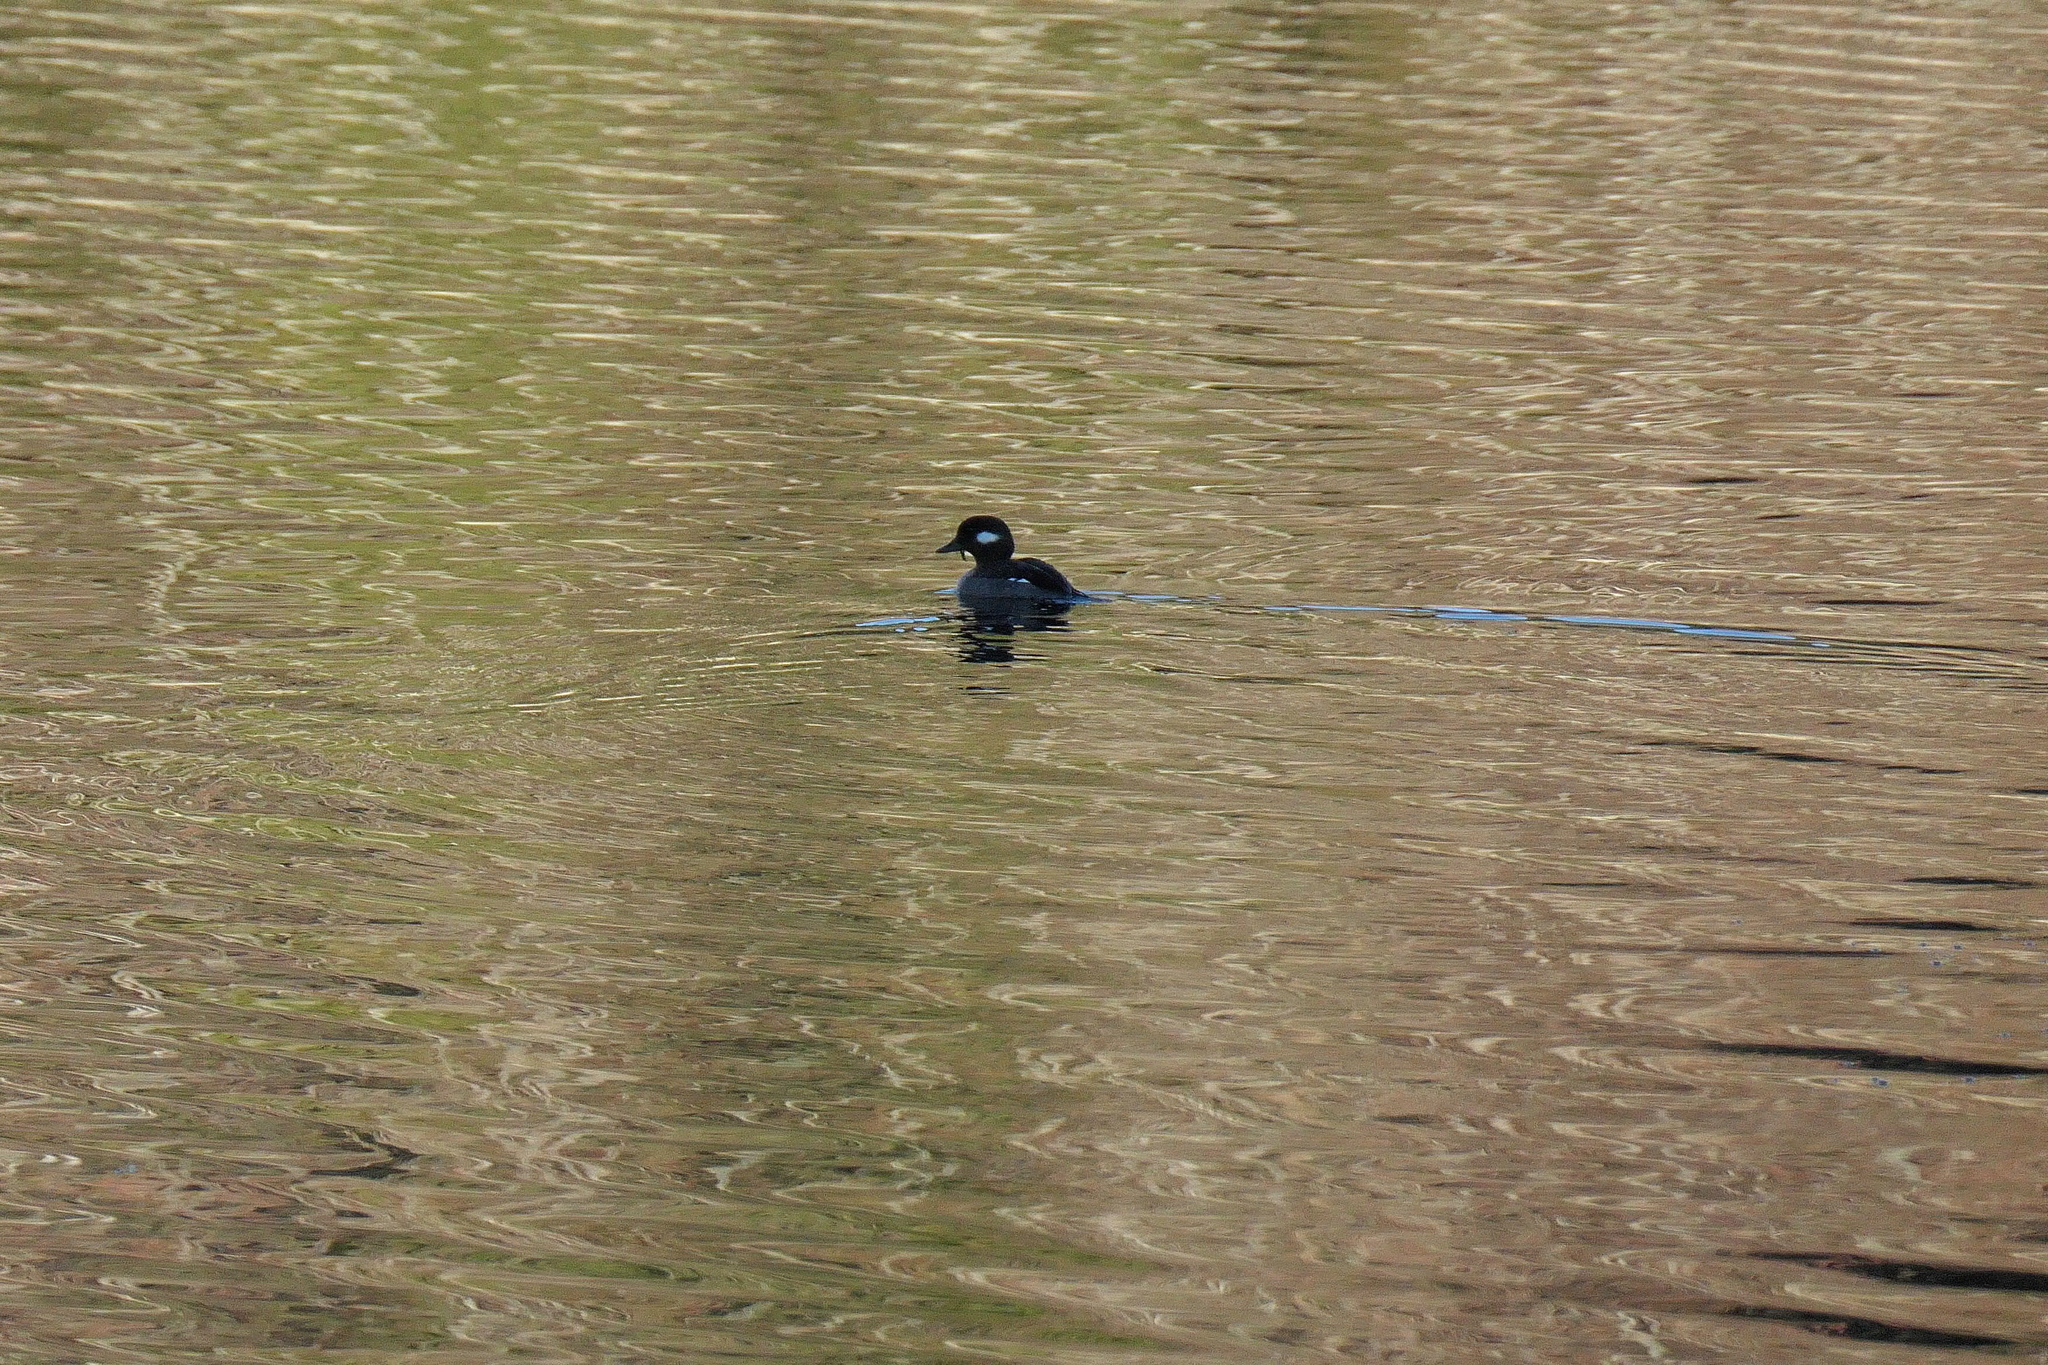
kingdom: Animalia
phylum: Chordata
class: Aves
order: Anseriformes
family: Anatidae
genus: Bucephala
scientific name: Bucephala albeola
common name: Bufflehead
